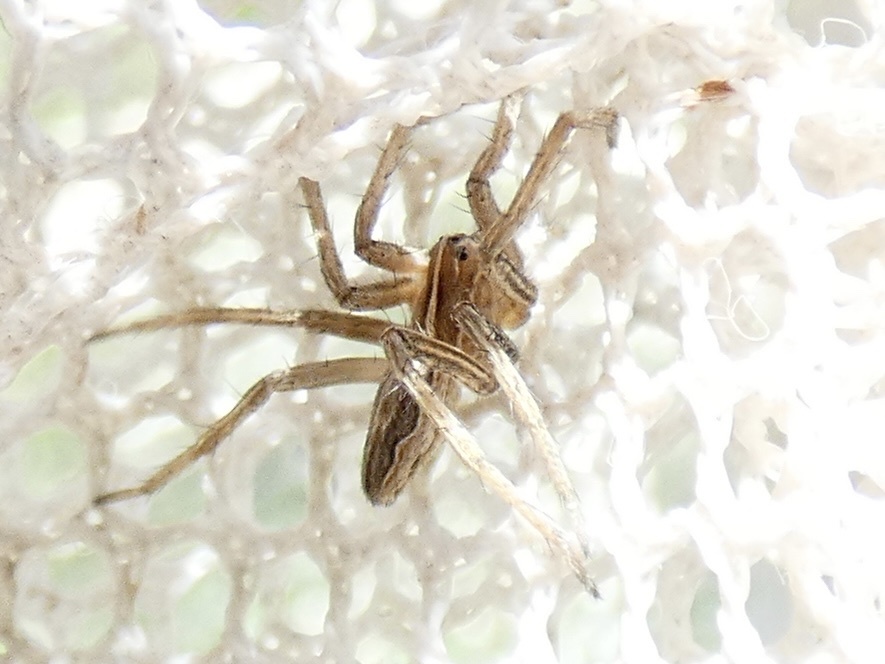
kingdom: Animalia
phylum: Arthropoda
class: Arachnida
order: Araneae
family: Pisauridae
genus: Pisaura
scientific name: Pisaura mirabilis
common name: Tent spider
